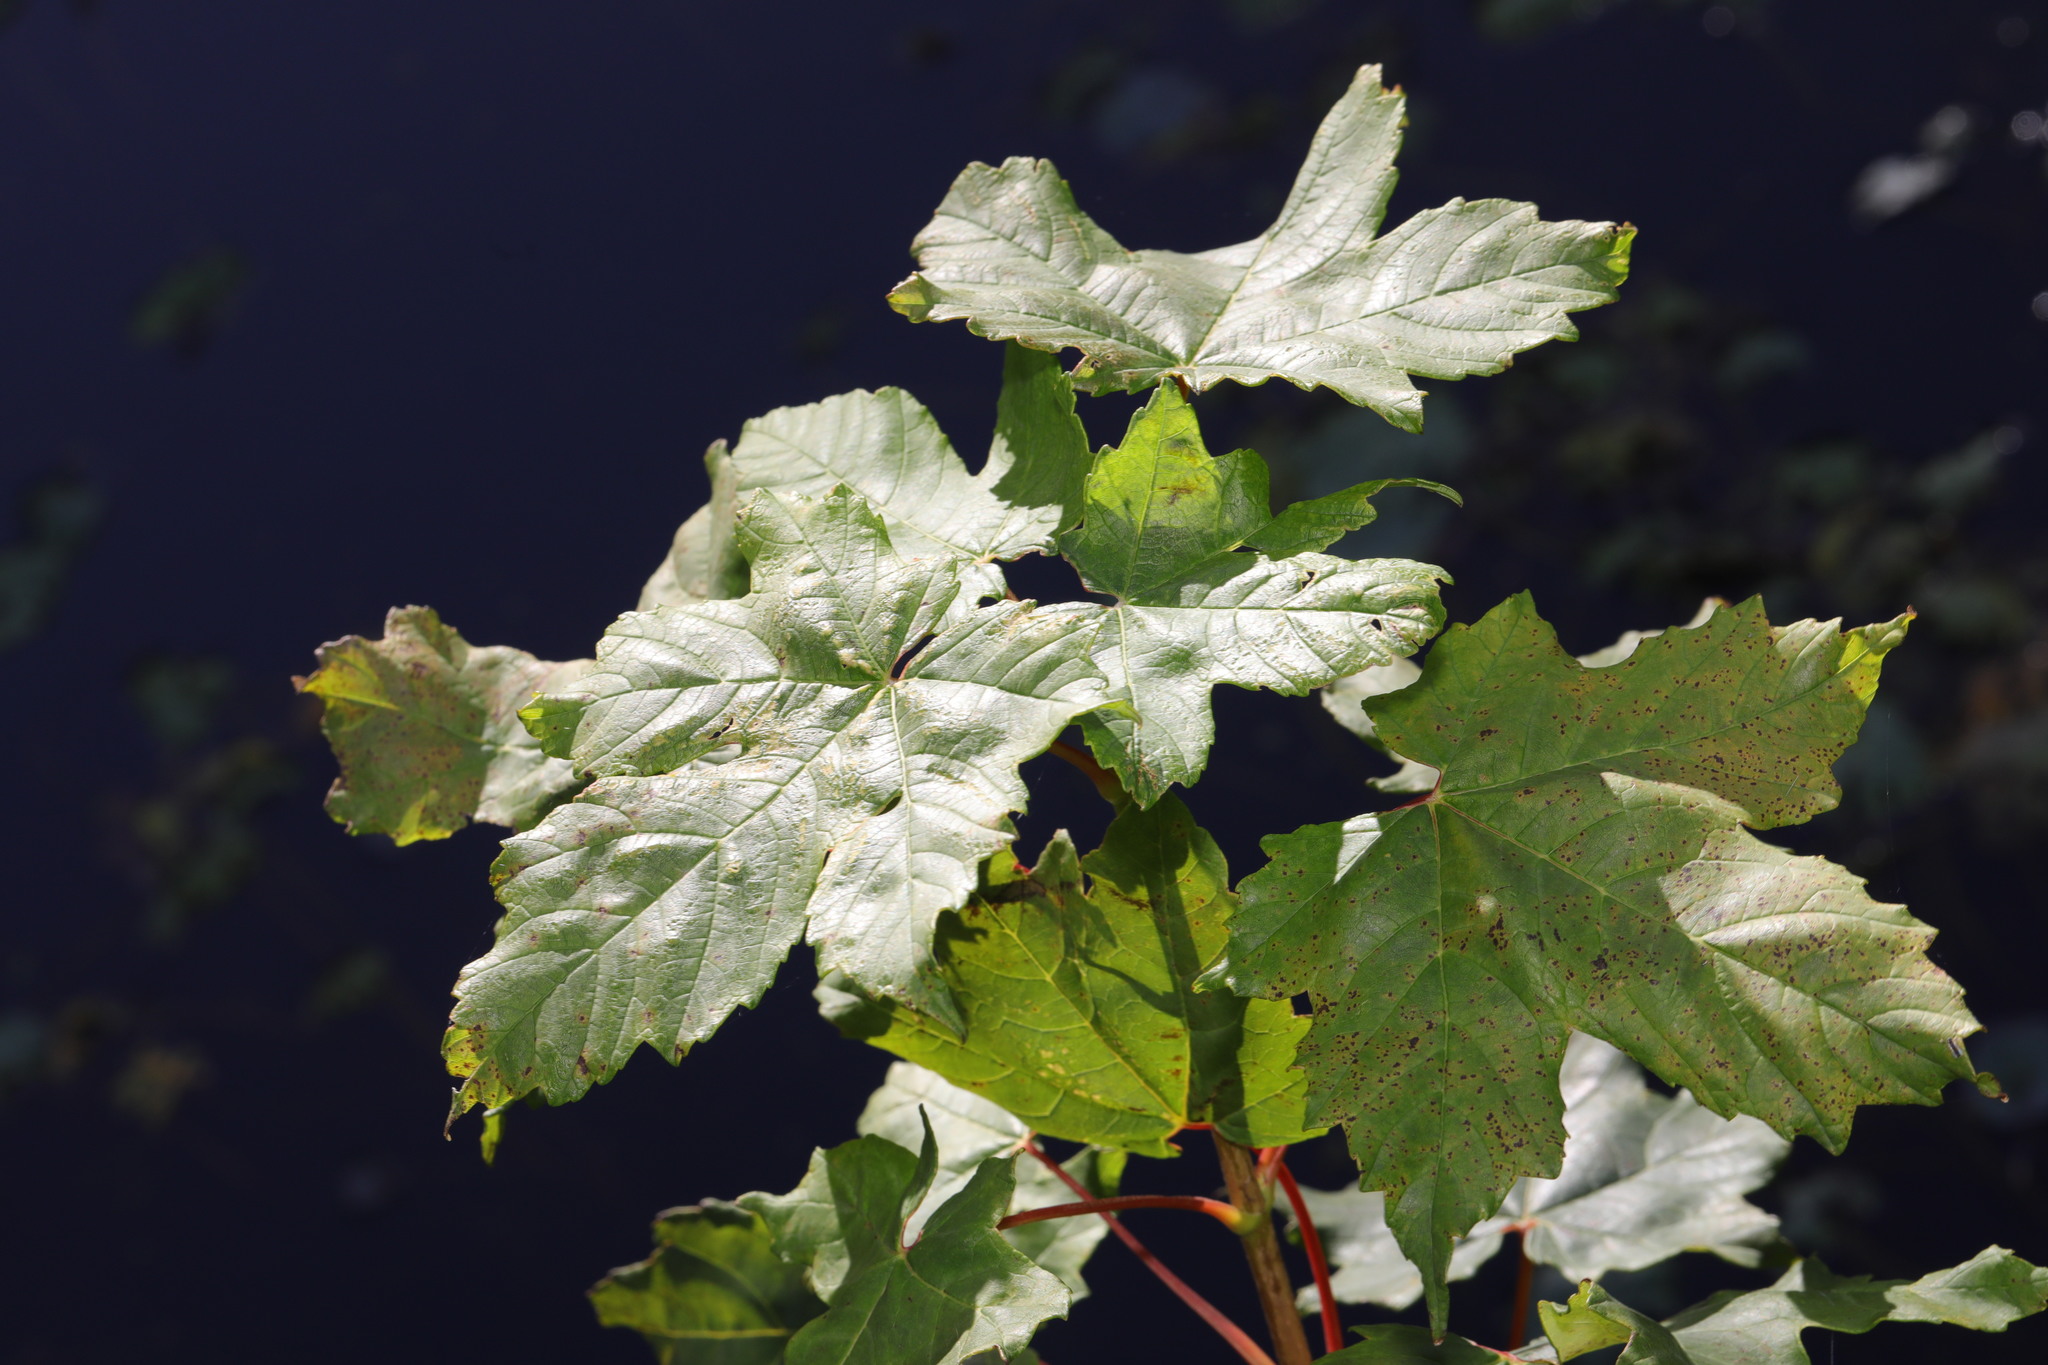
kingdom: Plantae
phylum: Tracheophyta
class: Magnoliopsida
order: Sapindales
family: Sapindaceae
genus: Acer
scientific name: Acer pseudoplatanus
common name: Sycamore
